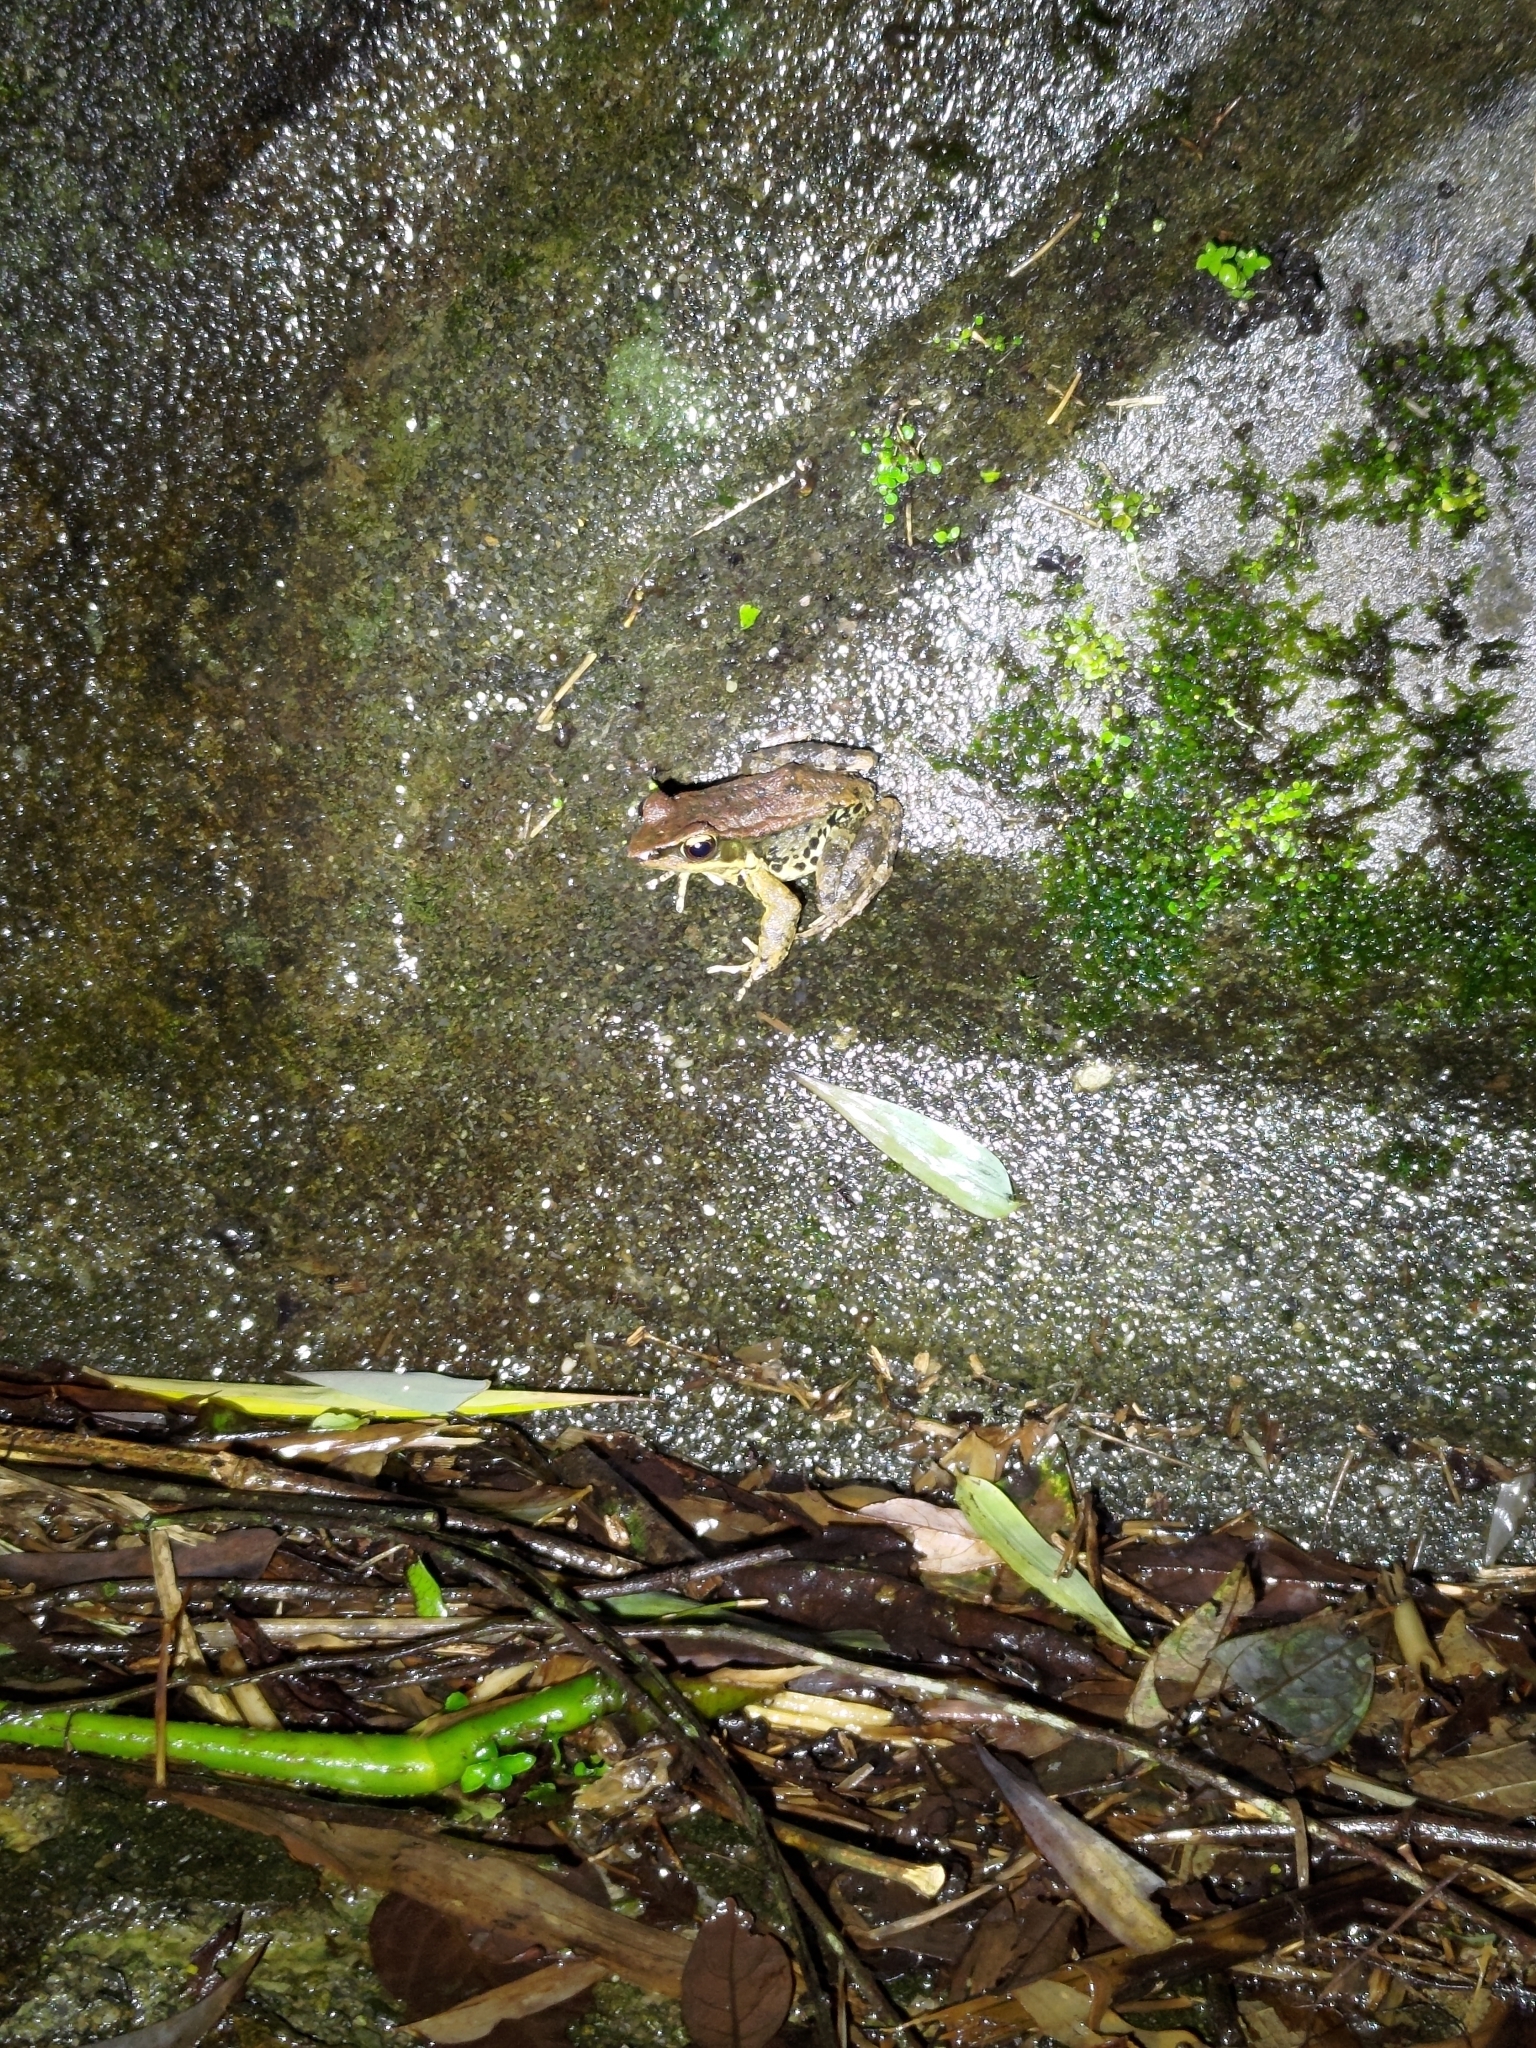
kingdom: Animalia
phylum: Chordata
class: Amphibia
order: Anura
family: Ranidae
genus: Hylarana
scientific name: Hylarana latouchii
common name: Broad-folded frog
